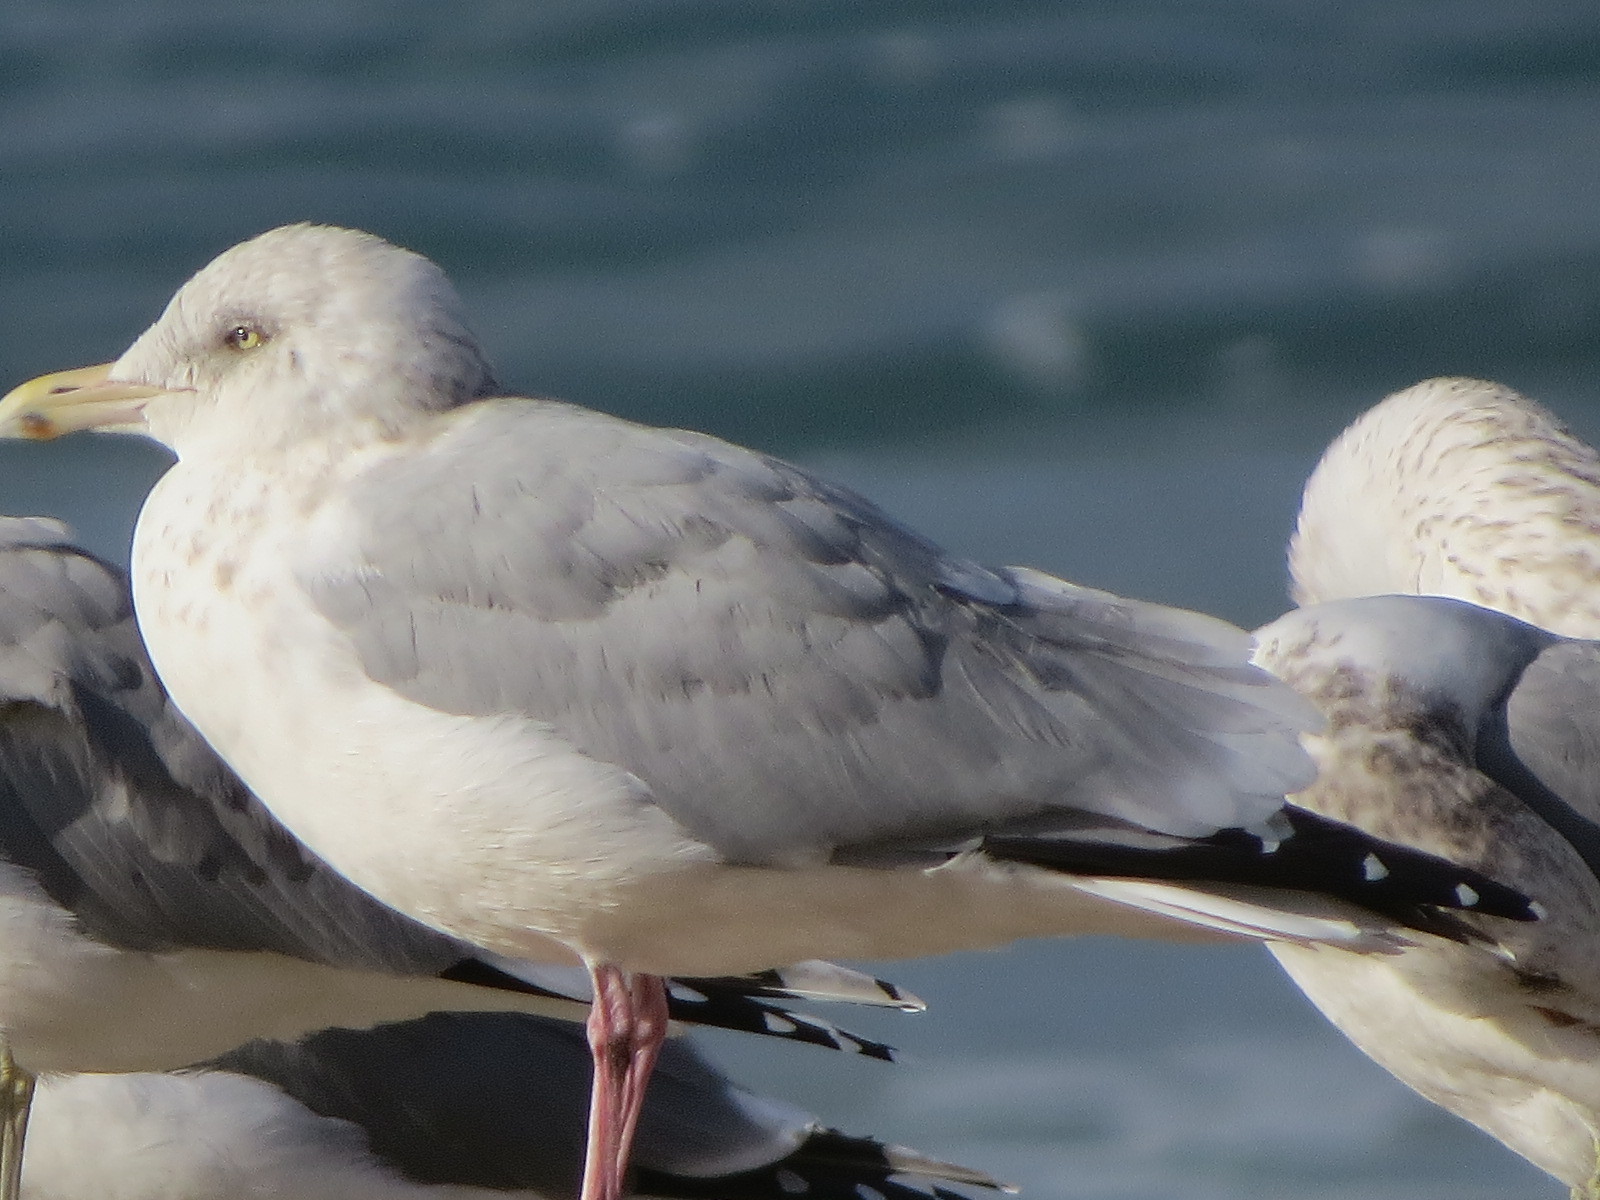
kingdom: Animalia
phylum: Chordata
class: Aves
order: Charadriiformes
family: Laridae
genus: Larus
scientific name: Larus argentatus
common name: Herring gull
